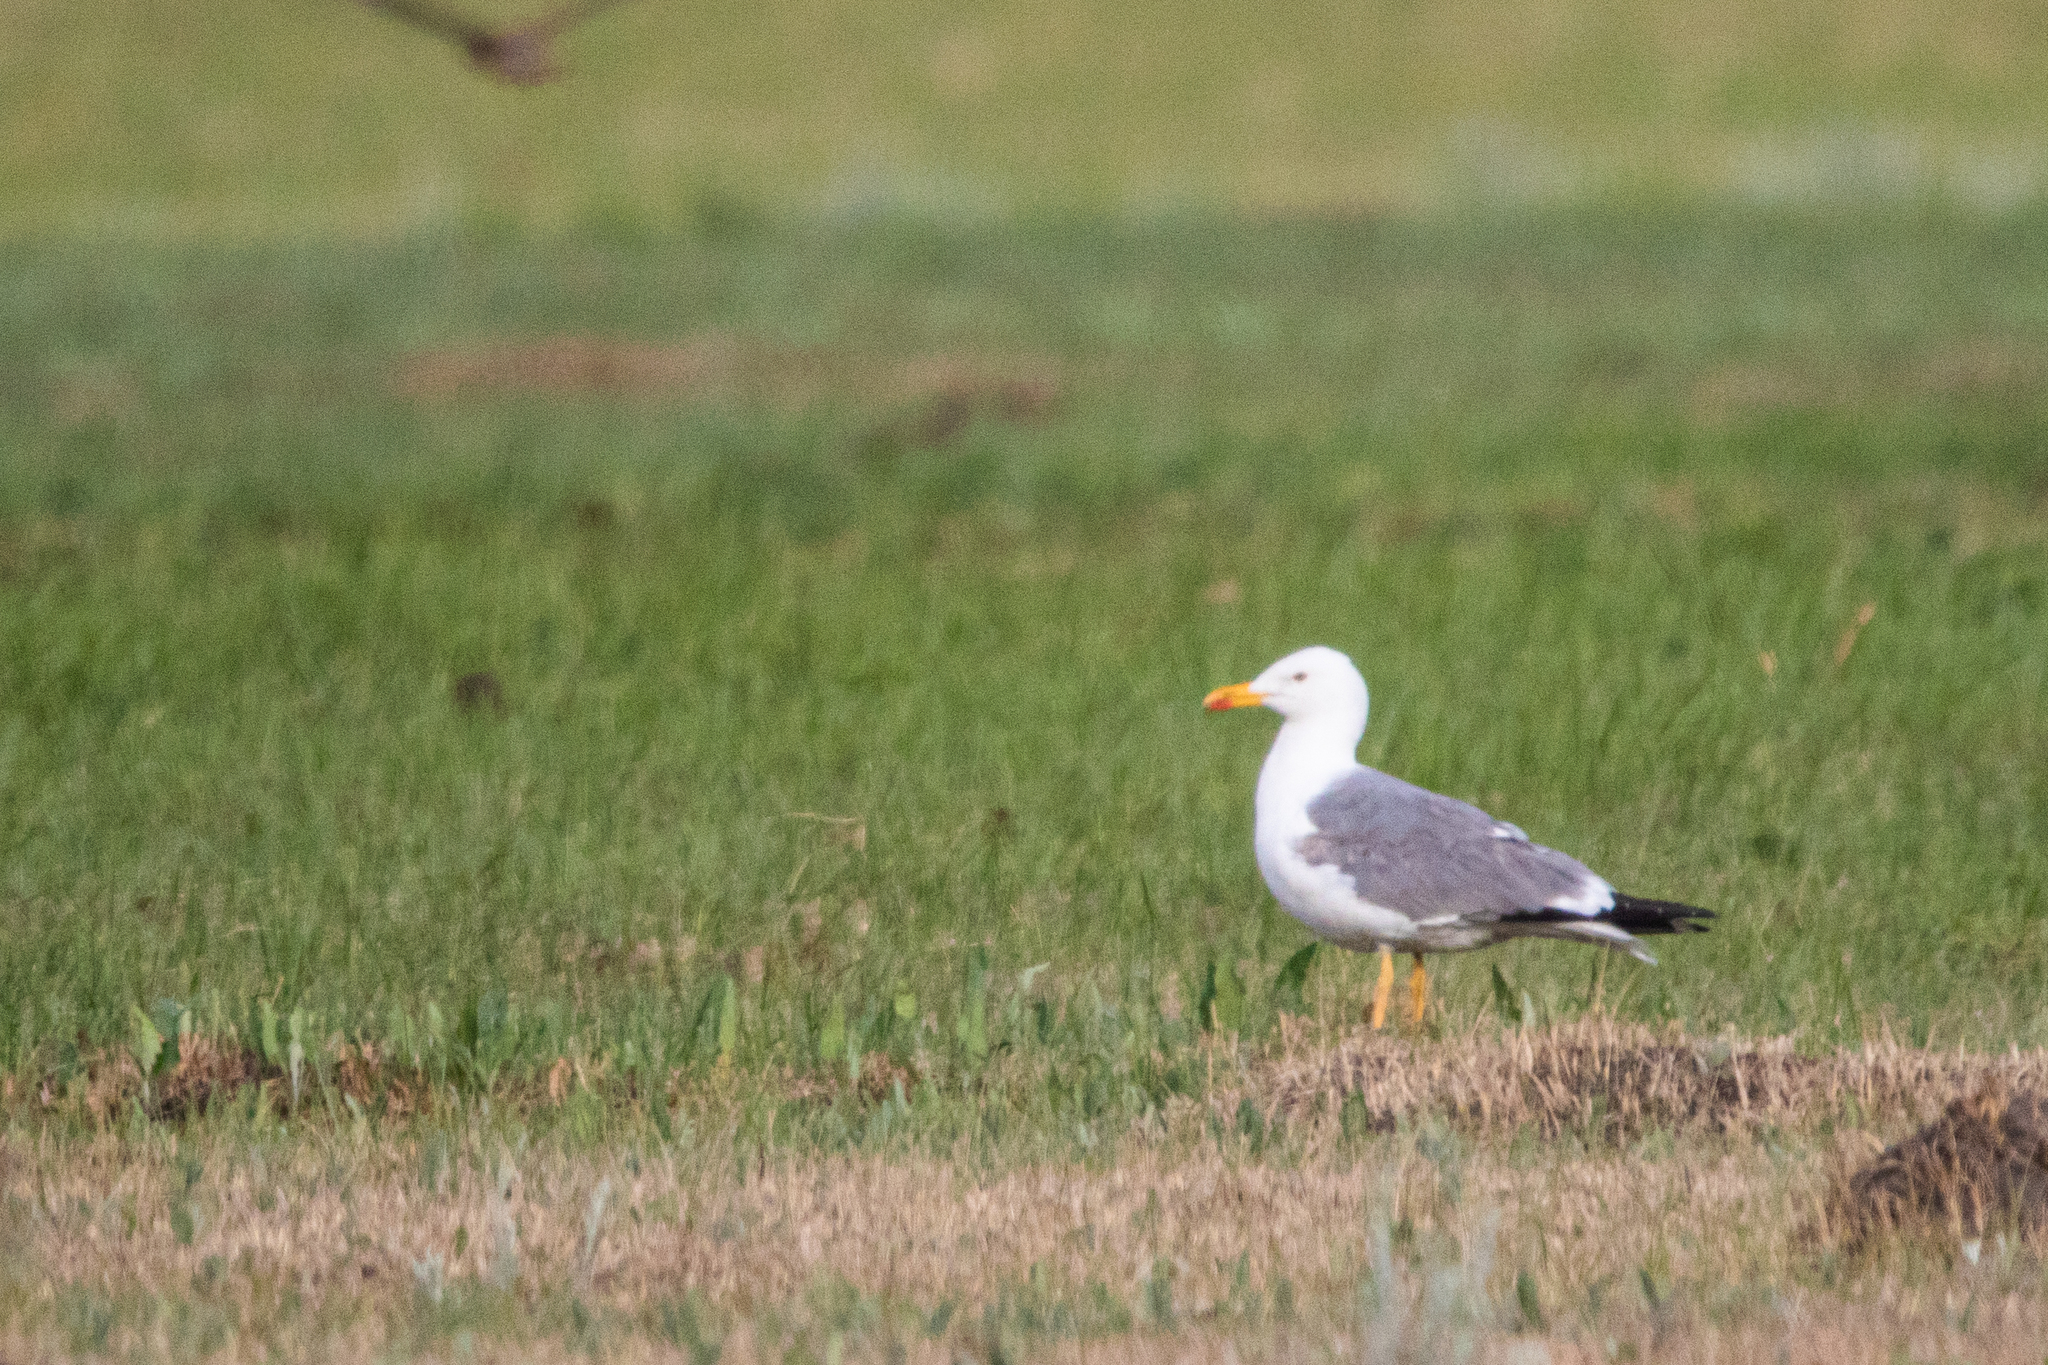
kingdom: Animalia
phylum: Chordata
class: Aves
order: Charadriiformes
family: Laridae
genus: Larus
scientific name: Larus fuscus
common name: Lesser black-backed gull
